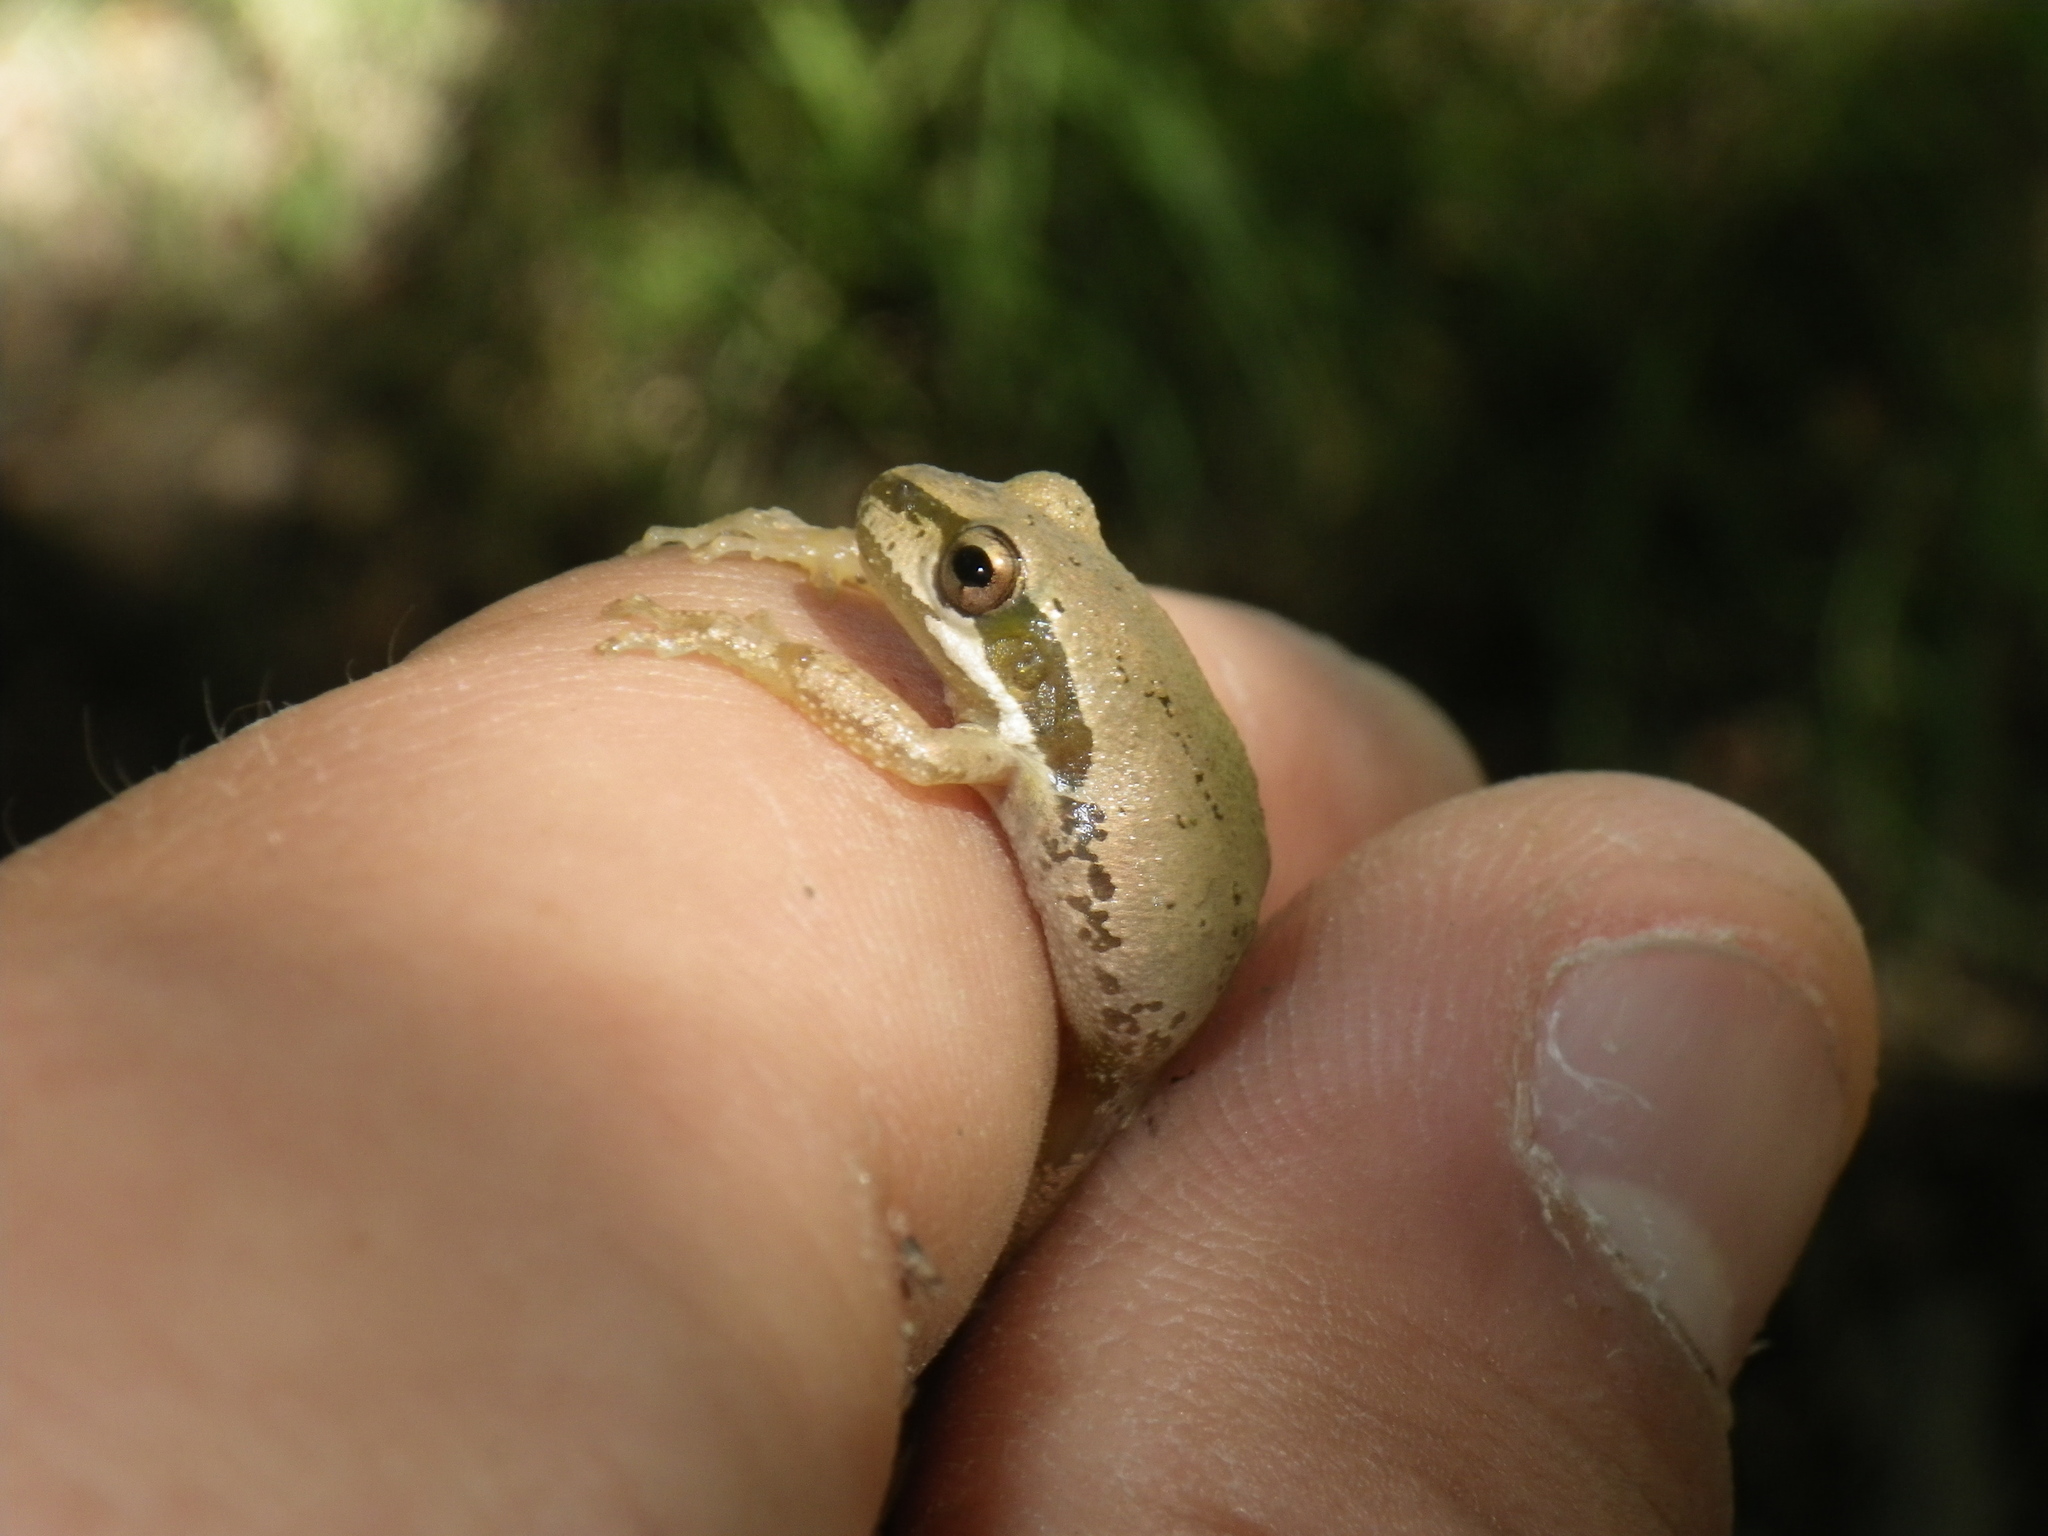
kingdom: Animalia
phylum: Chordata
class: Amphibia
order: Anura
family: Hylidae
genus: Pseudacris
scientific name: Pseudacris regilla
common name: Pacific chorus frog
